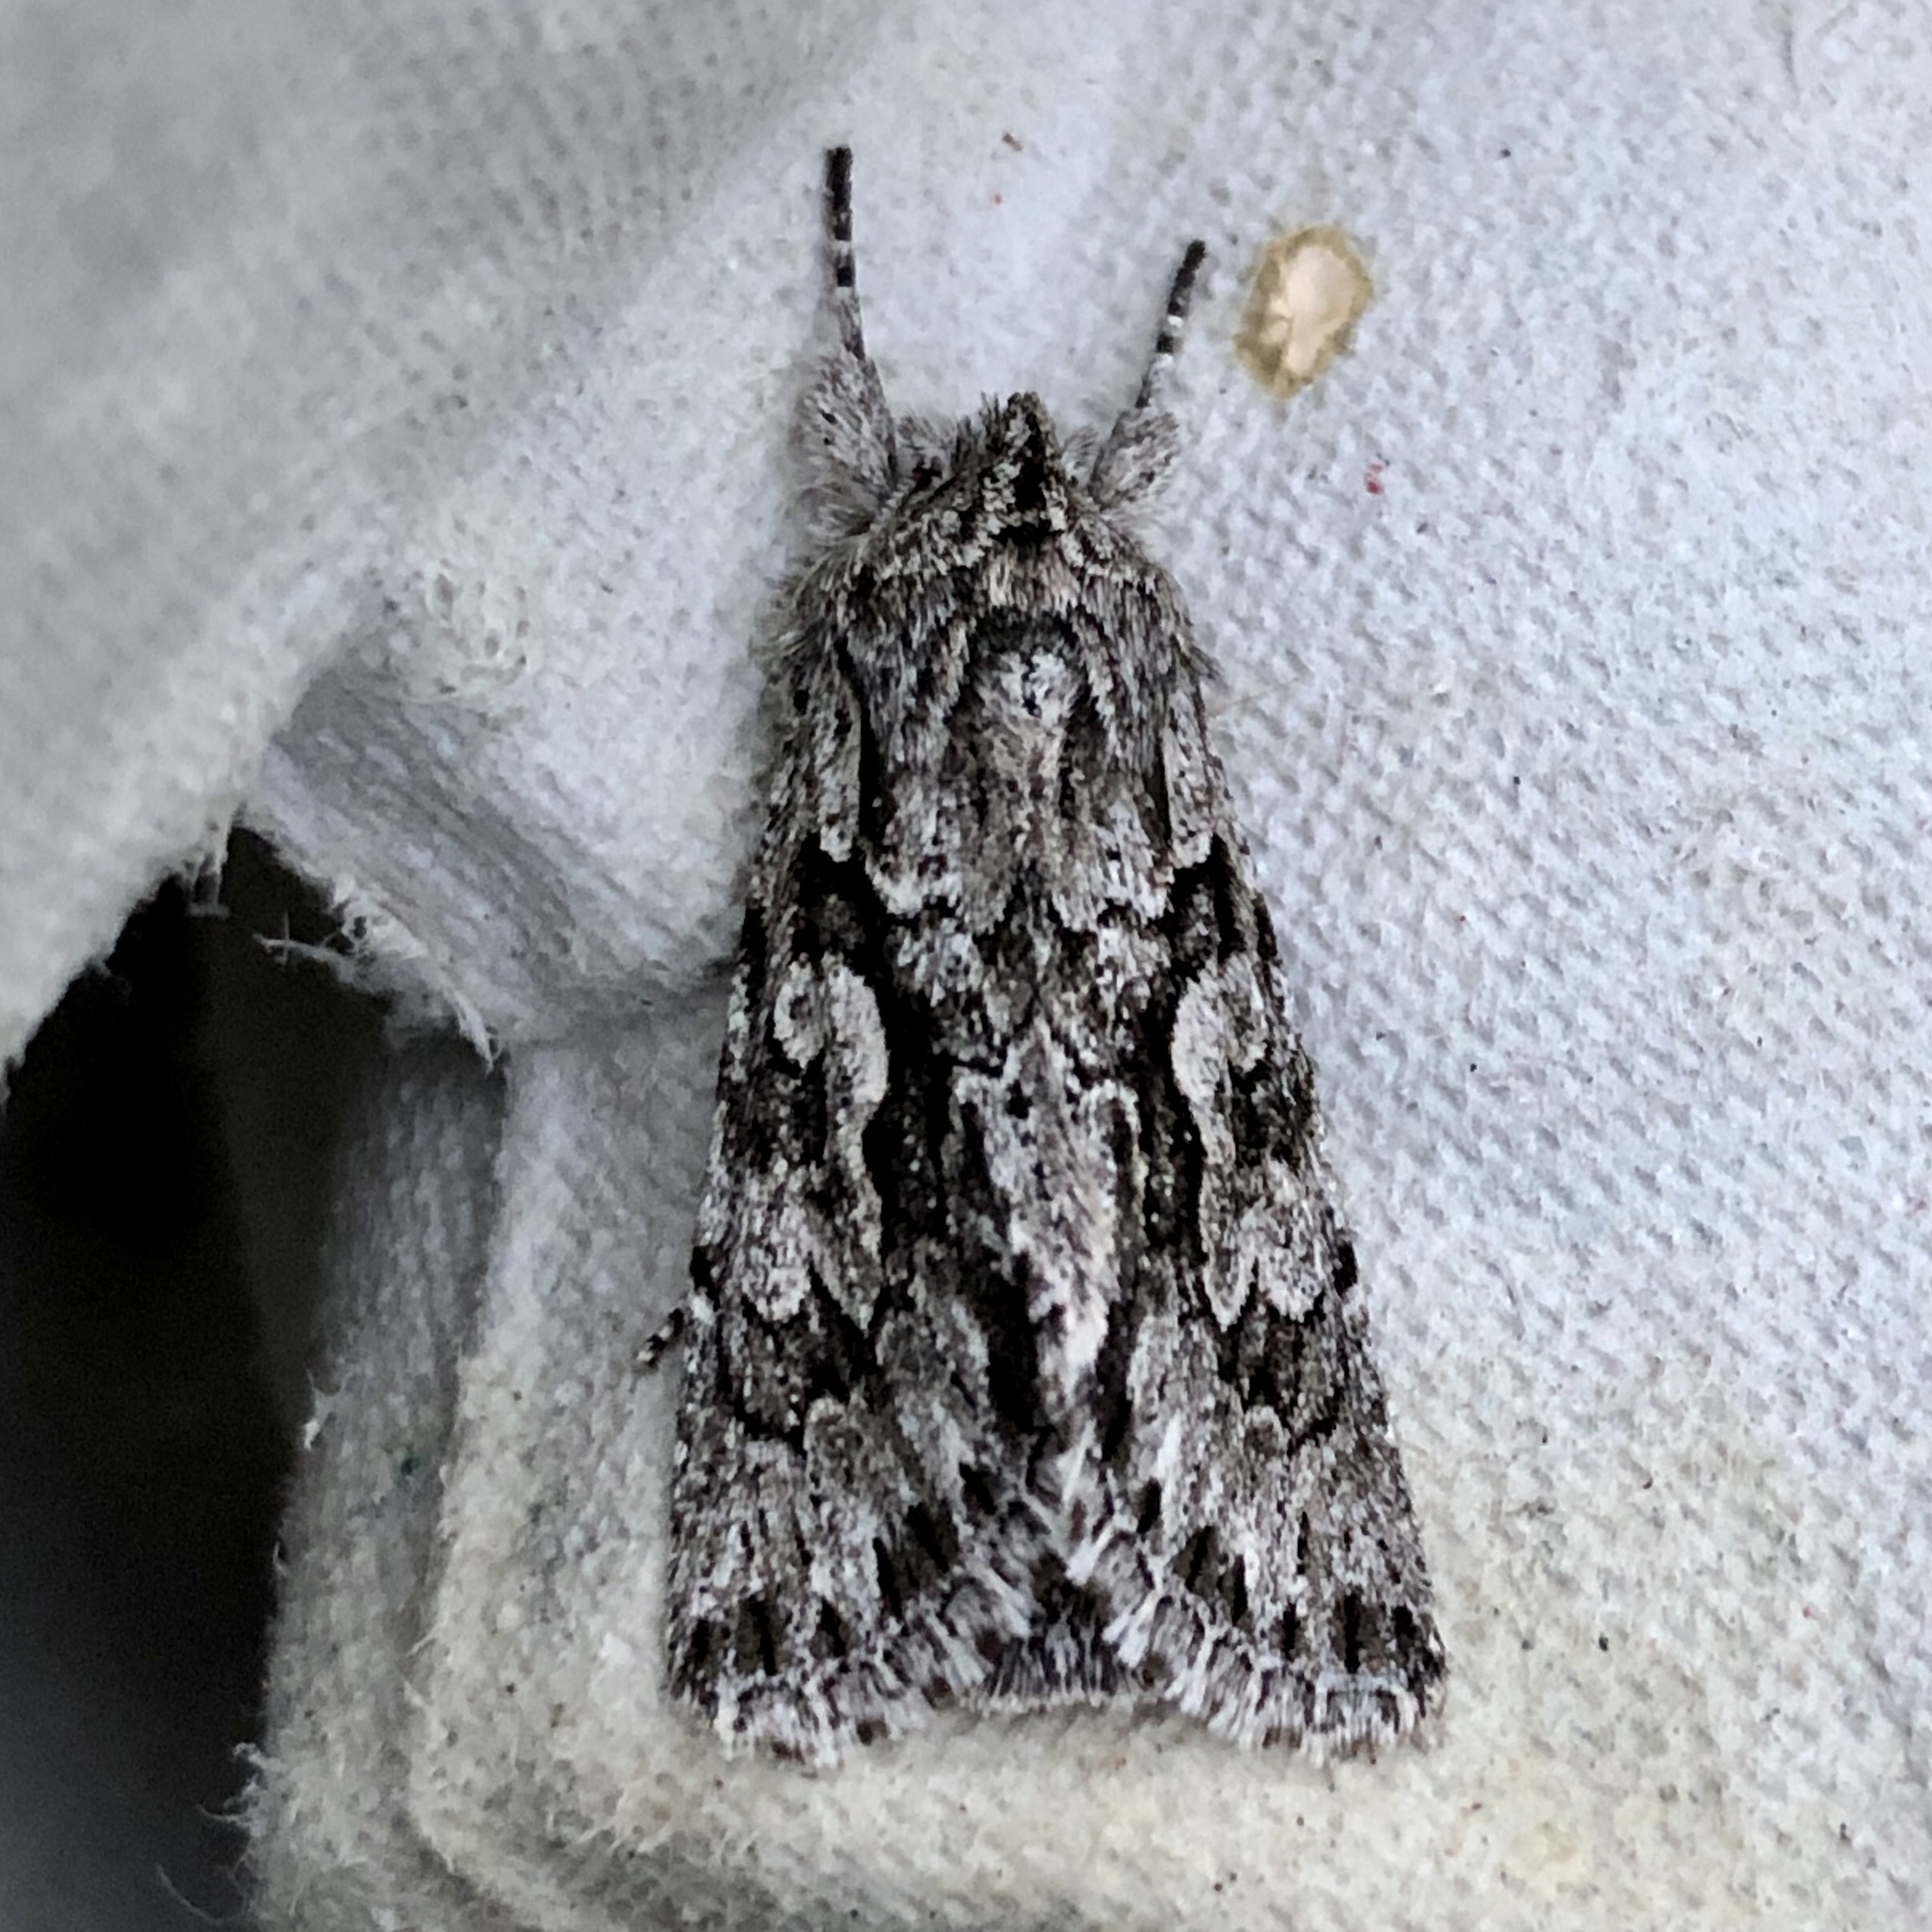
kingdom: Animalia
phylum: Arthropoda
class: Insecta
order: Lepidoptera
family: Noctuidae
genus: Xylocampa
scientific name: Xylocampa areola
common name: Early grey
